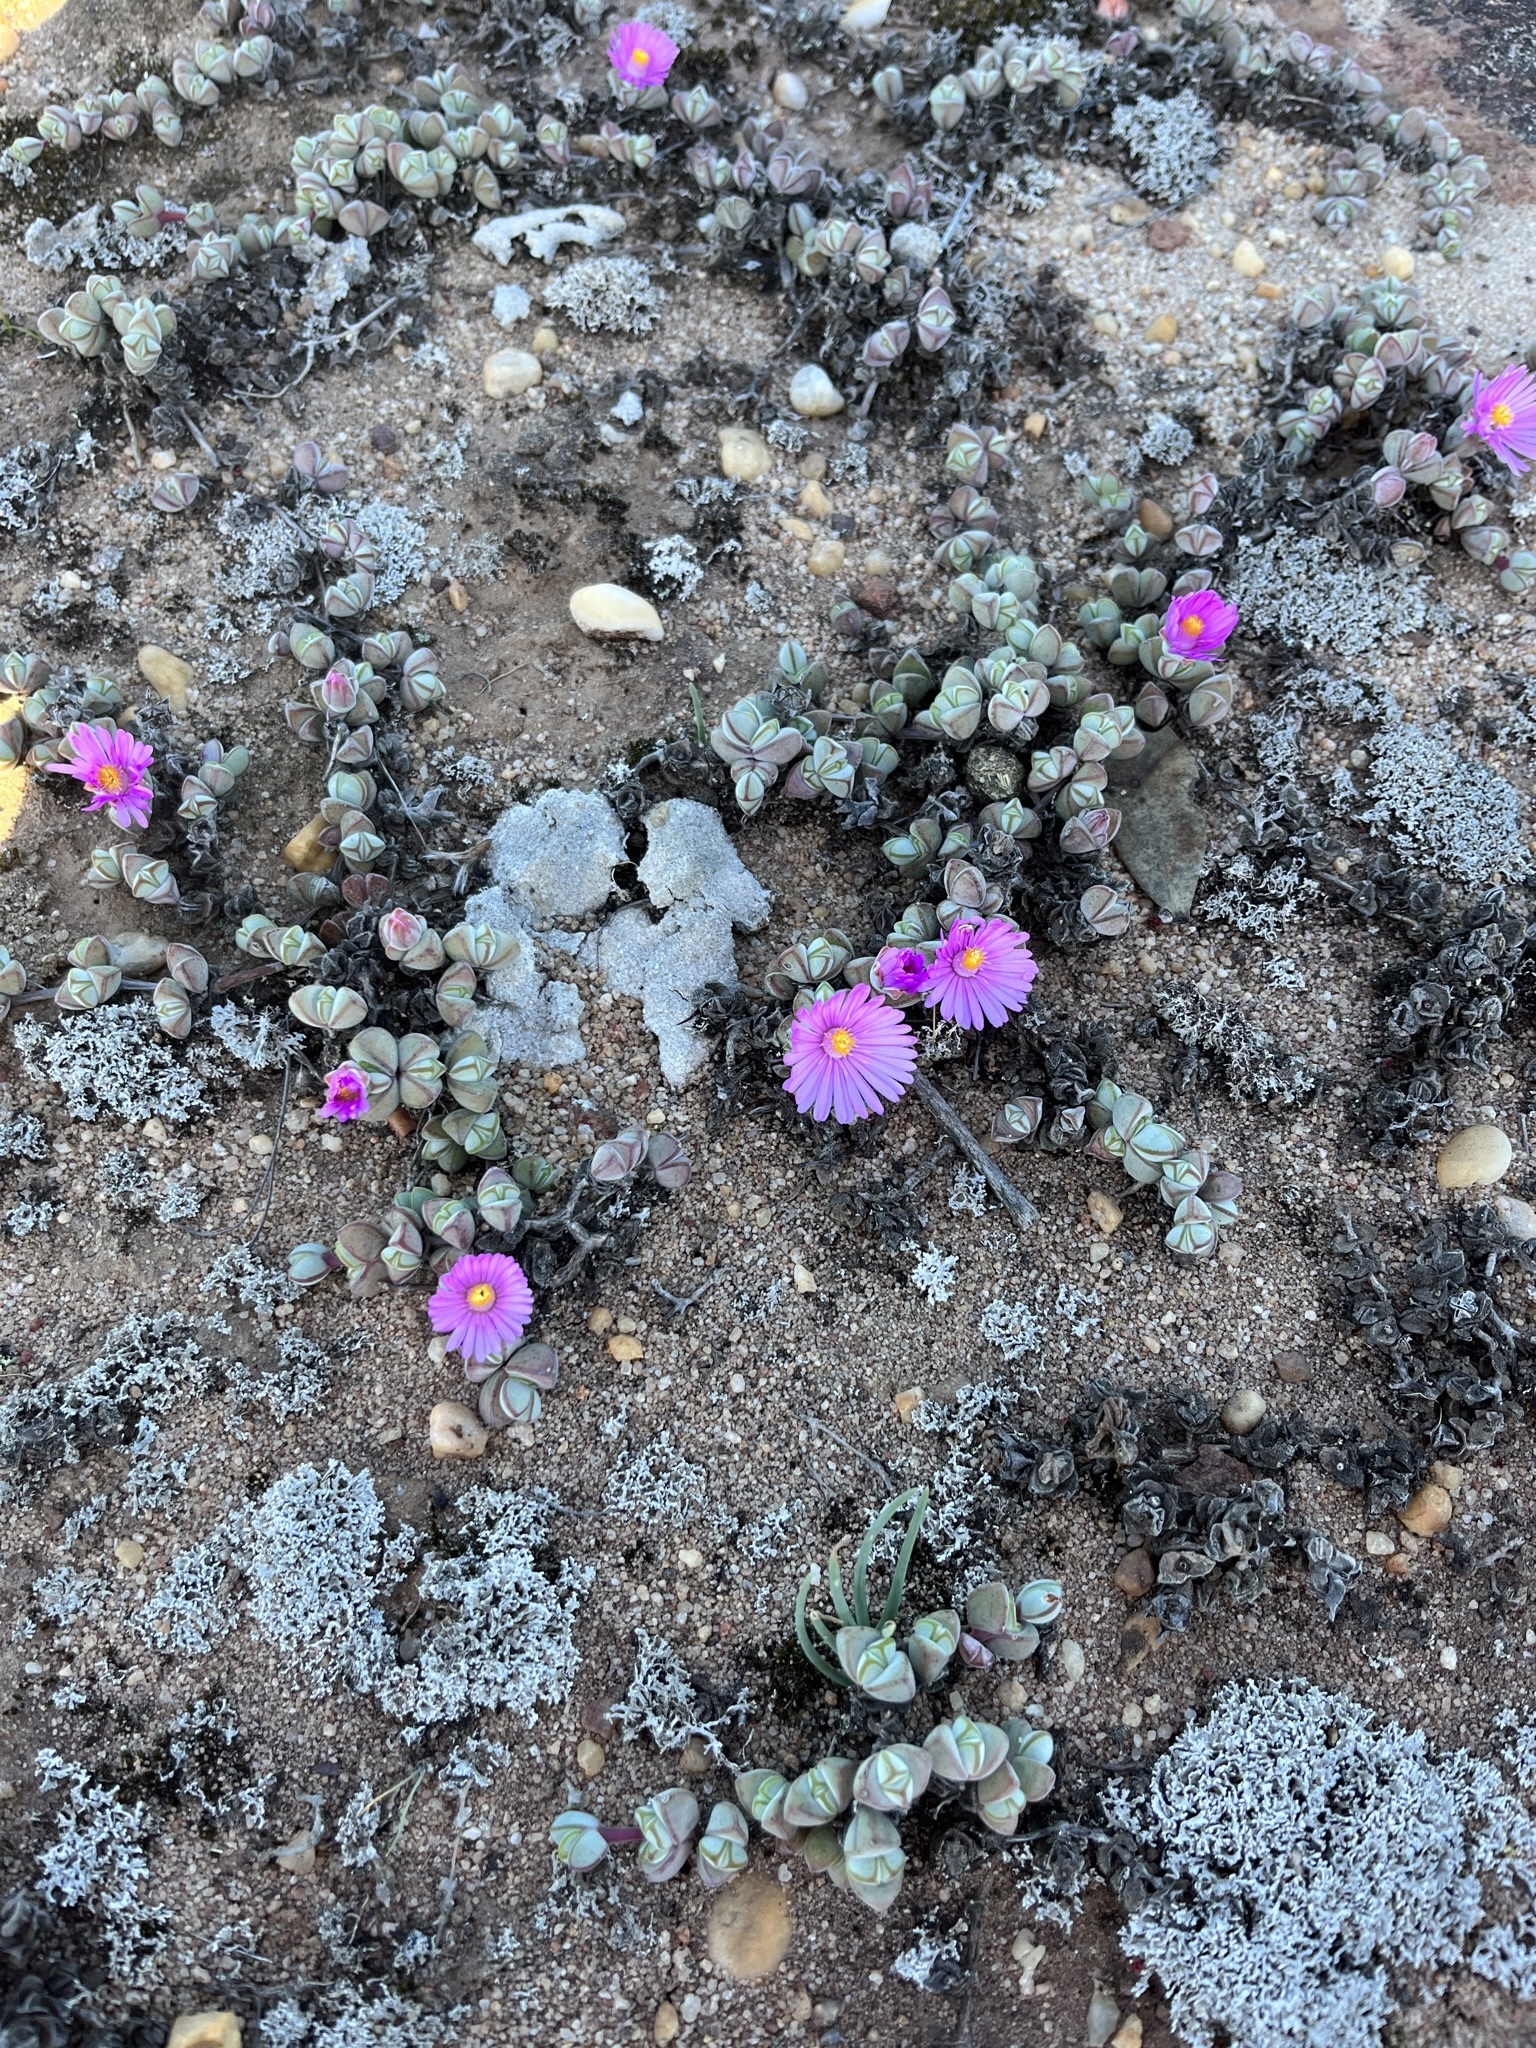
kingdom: Plantae
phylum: Tracheophyta
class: Magnoliopsida
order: Caryophyllales
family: Aizoaceae
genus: Braunsia
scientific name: Braunsia maximiliani
